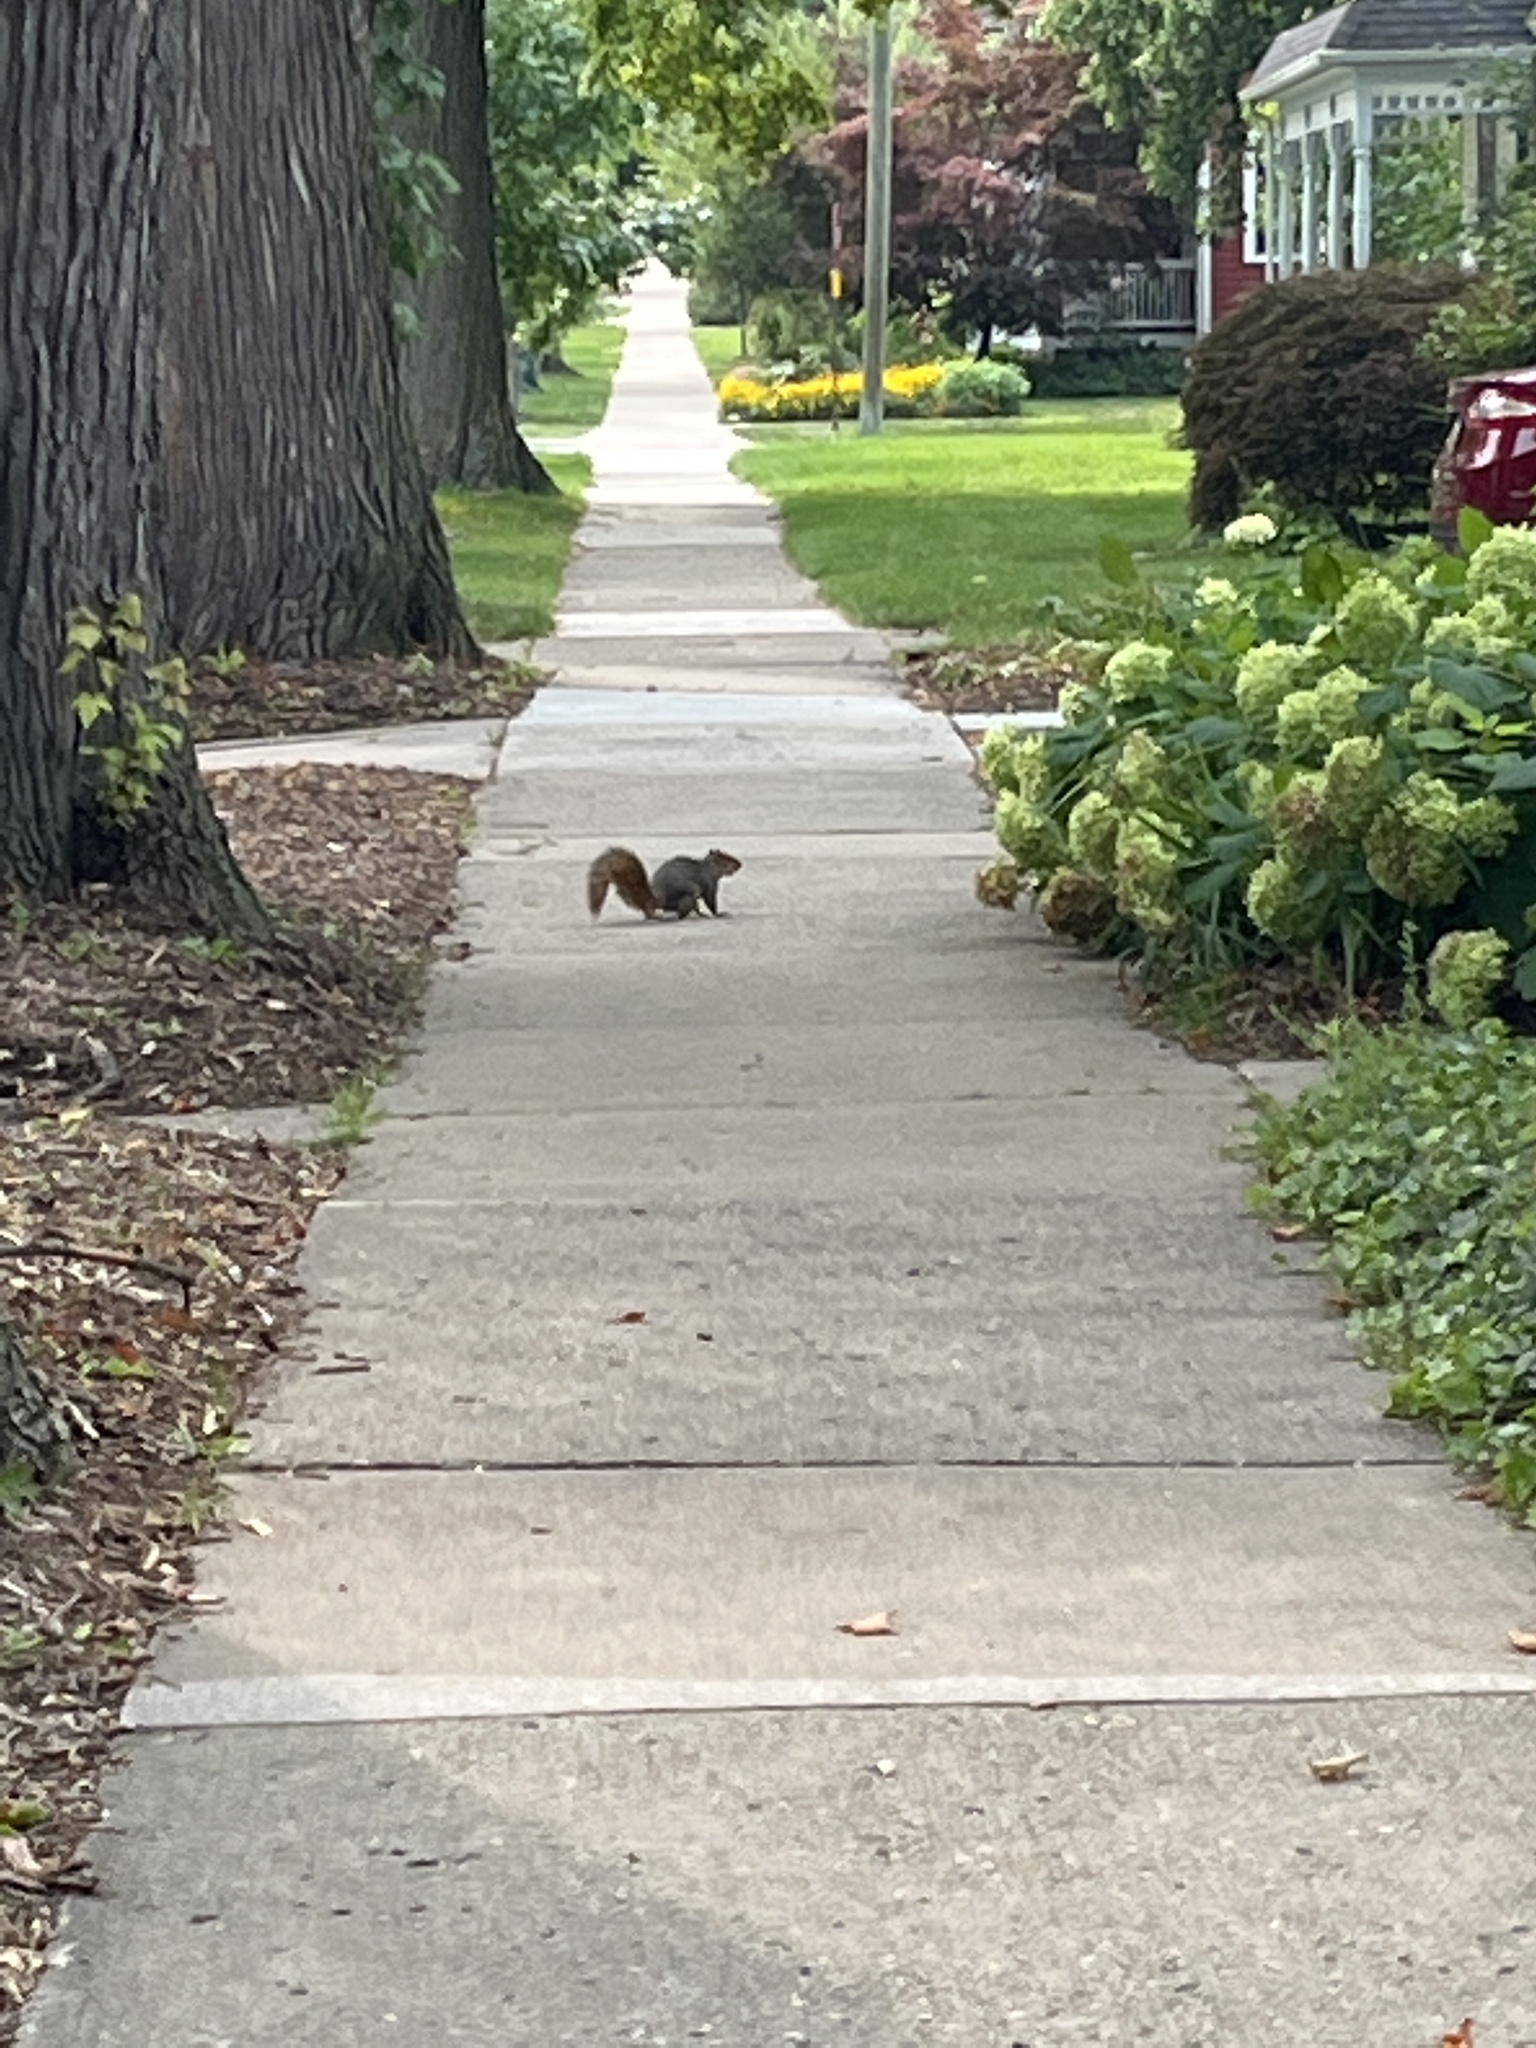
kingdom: Animalia
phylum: Chordata
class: Mammalia
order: Rodentia
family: Sciuridae
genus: Sciurus
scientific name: Sciurus niger
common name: Fox squirrel
